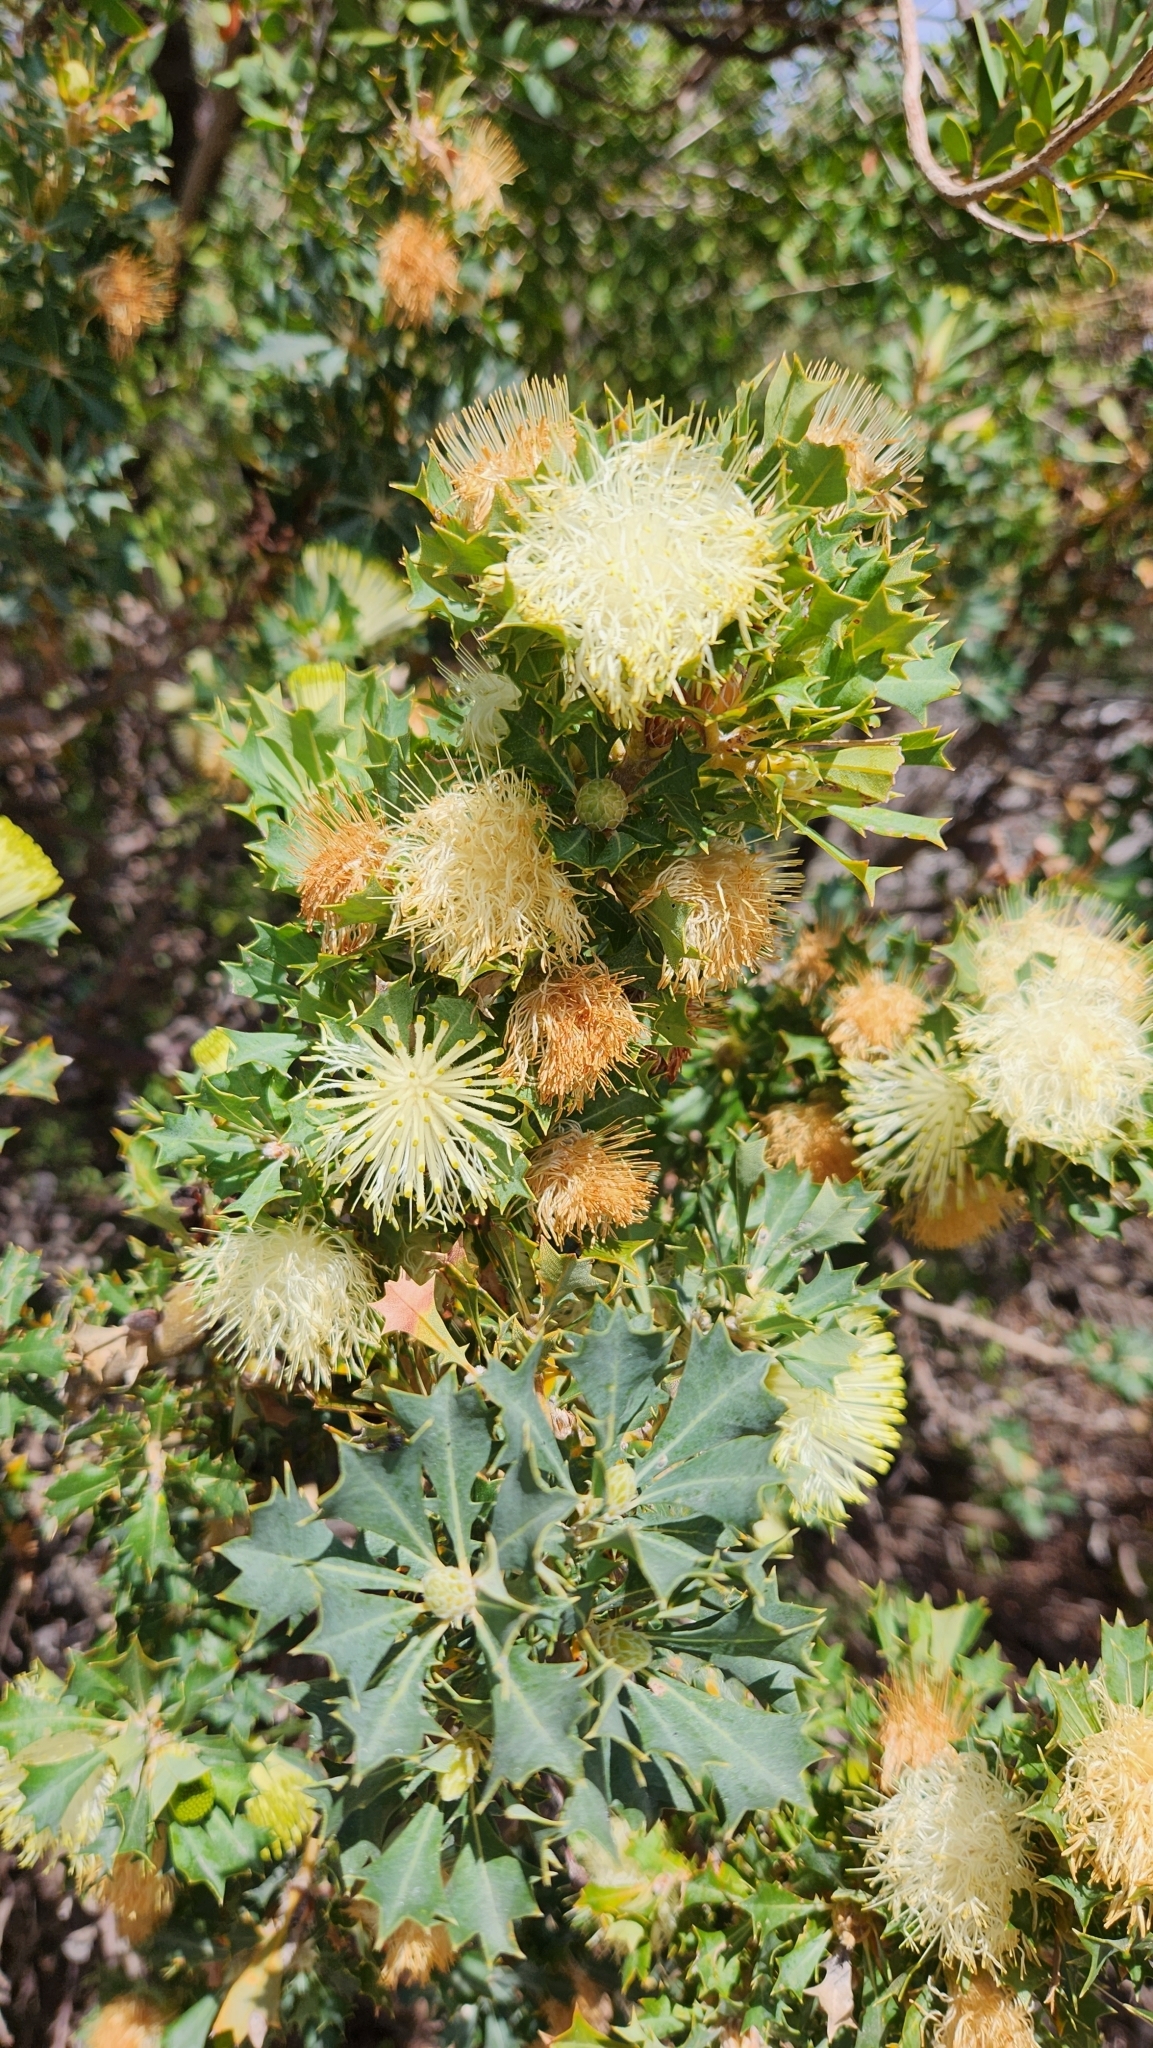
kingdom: Plantae
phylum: Tracheophyta
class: Magnoliopsida
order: Proteales
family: Proteaceae
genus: Banksia
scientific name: Banksia sessilis
